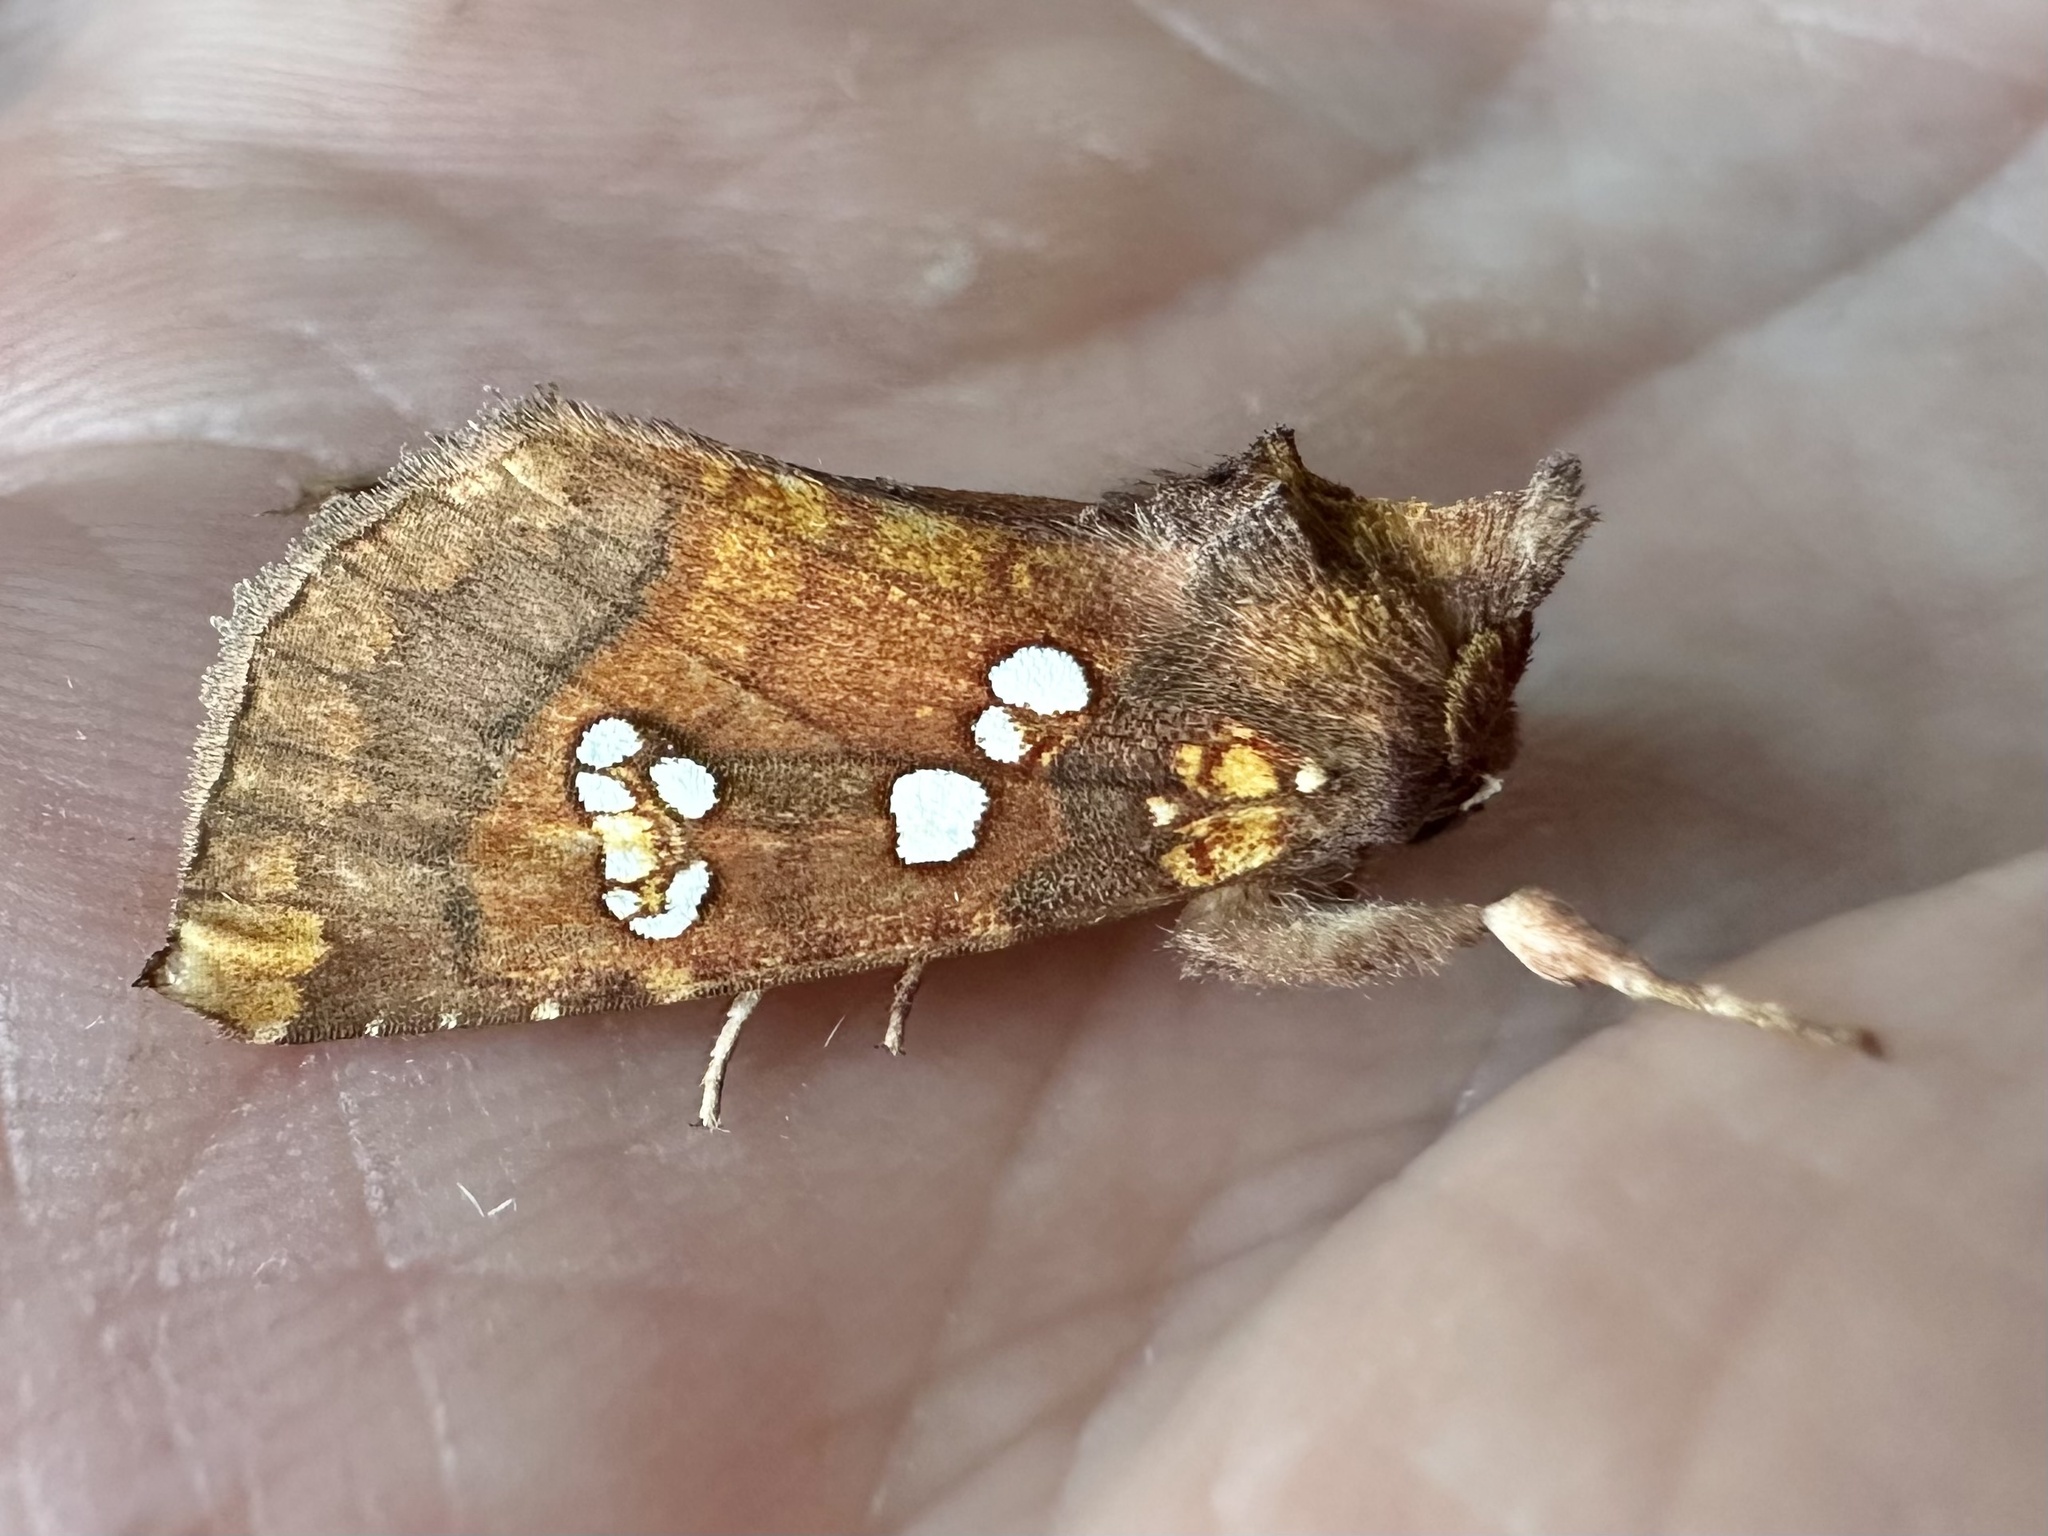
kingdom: Animalia
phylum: Arthropoda
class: Insecta
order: Lepidoptera
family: Noctuidae
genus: Papaipema
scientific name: Papaipema baptisiae
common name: Wild indigo borer moth
